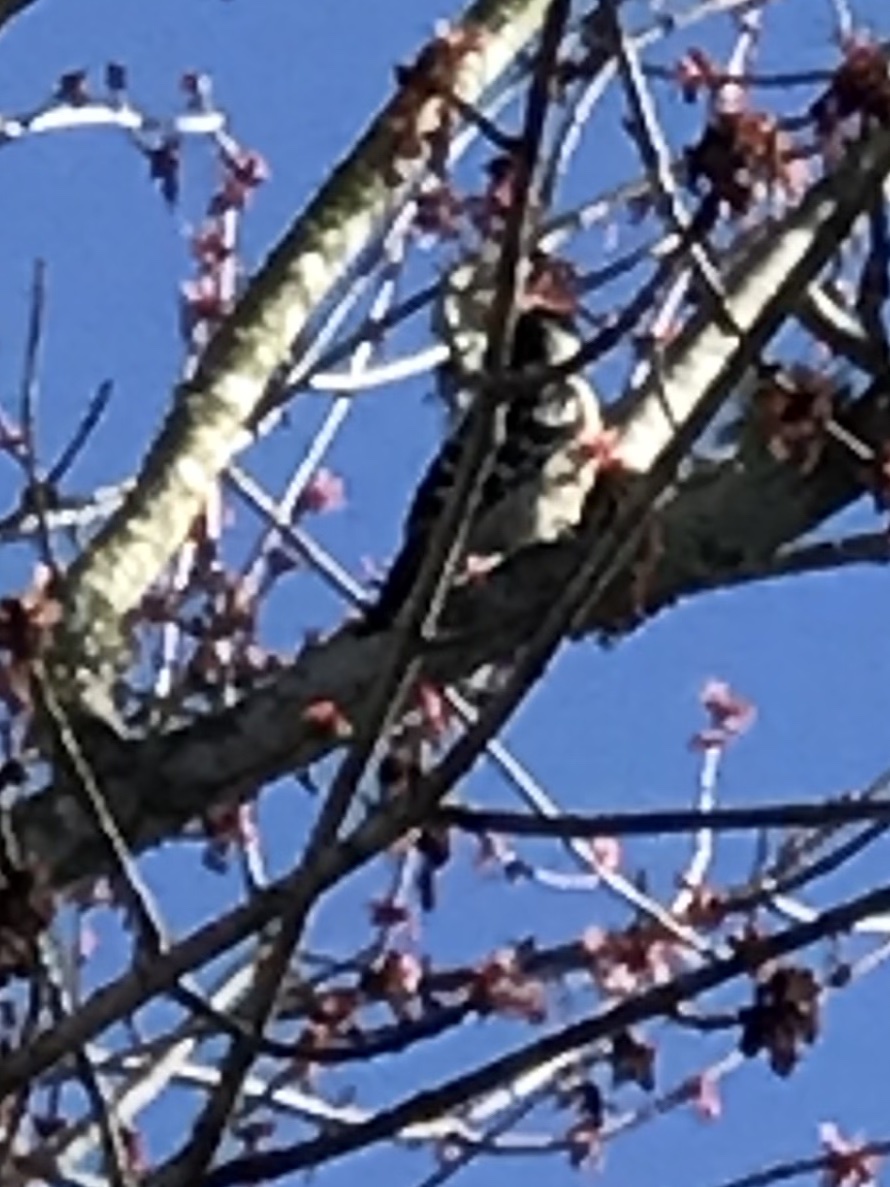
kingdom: Animalia
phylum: Chordata
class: Aves
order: Piciformes
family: Picidae
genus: Dryobates
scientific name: Dryobates pubescens
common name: Downy woodpecker
